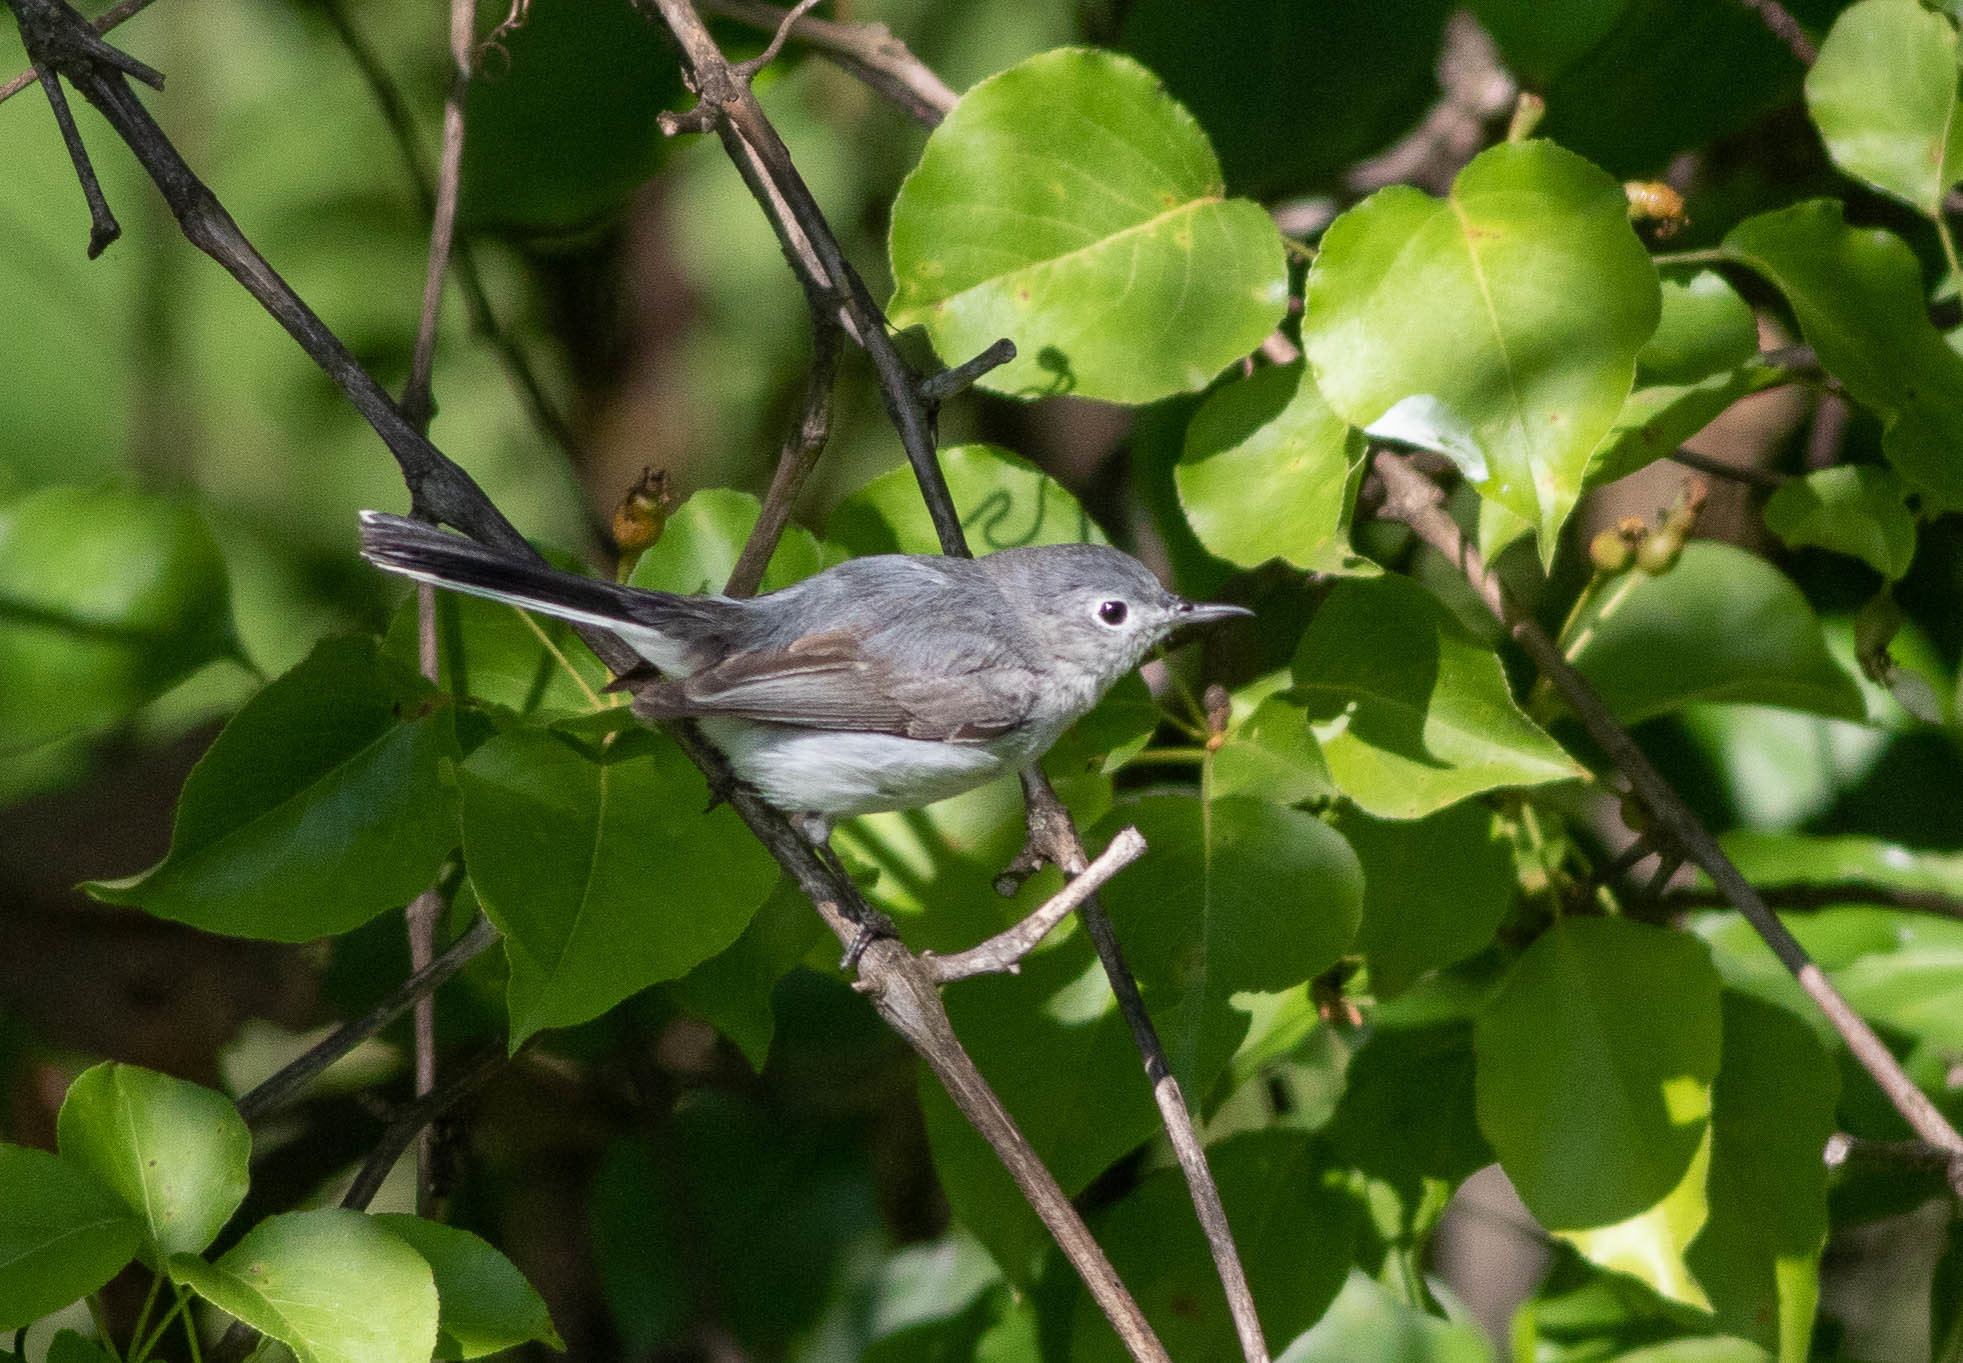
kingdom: Animalia
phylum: Chordata
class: Aves
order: Passeriformes
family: Polioptilidae
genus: Polioptila
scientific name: Polioptila caerulea
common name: Blue-gray gnatcatcher
